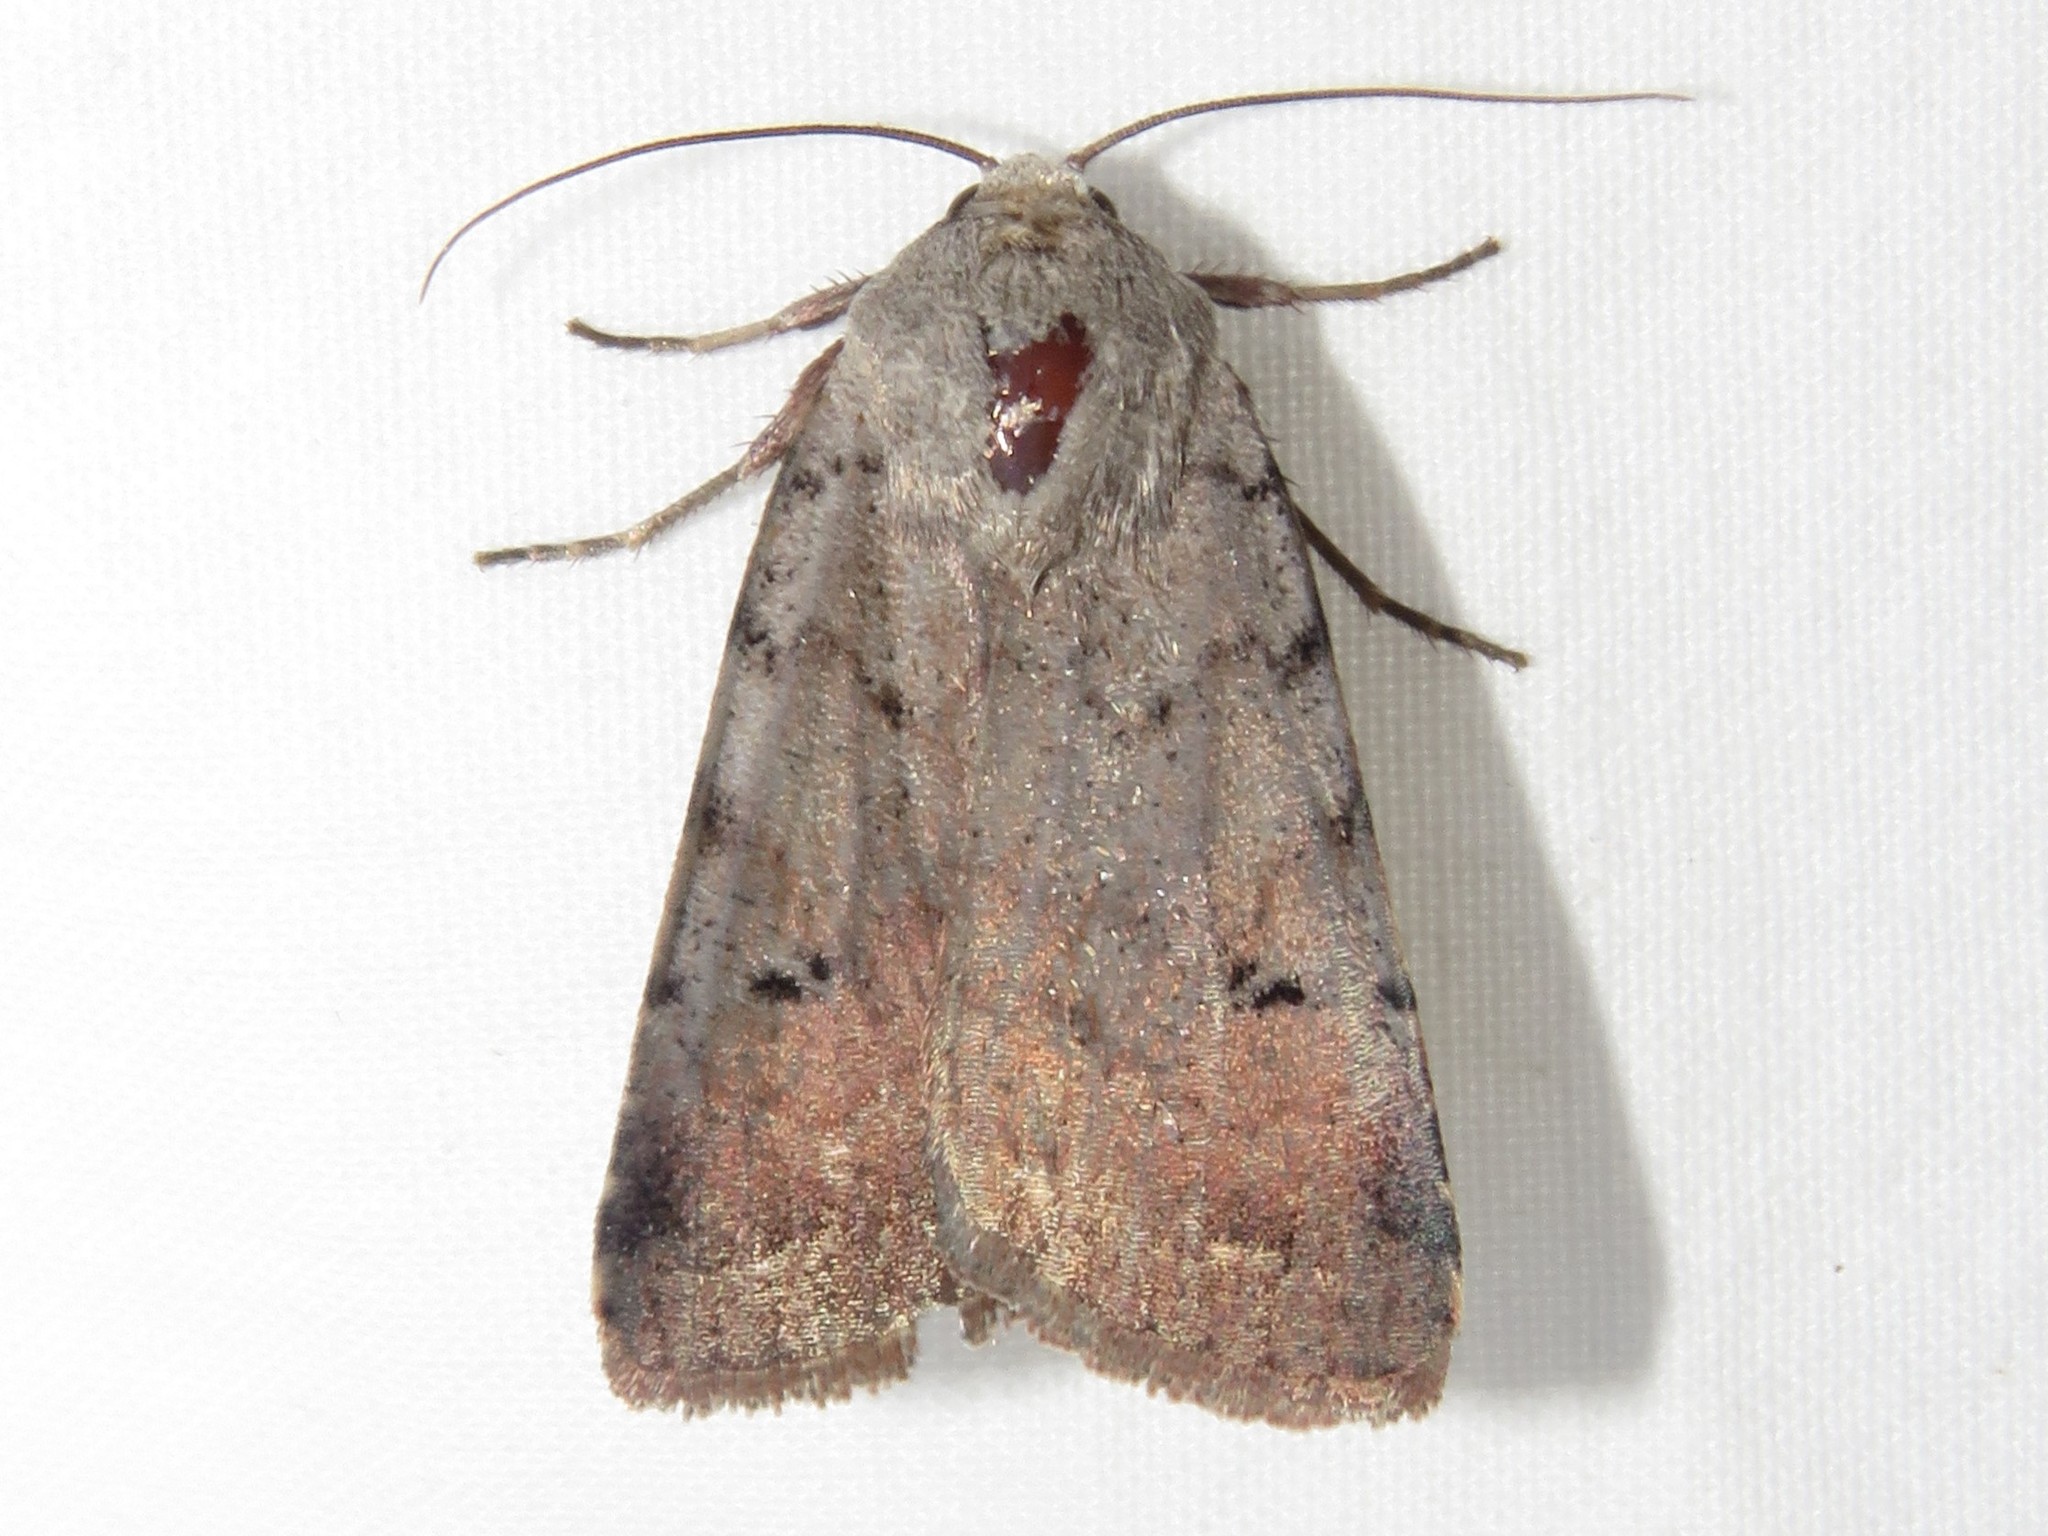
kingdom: Animalia
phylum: Arthropoda
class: Insecta
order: Lepidoptera
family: Noctuidae
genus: Anicla
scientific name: Anicla illapsa
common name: Snowy dart
